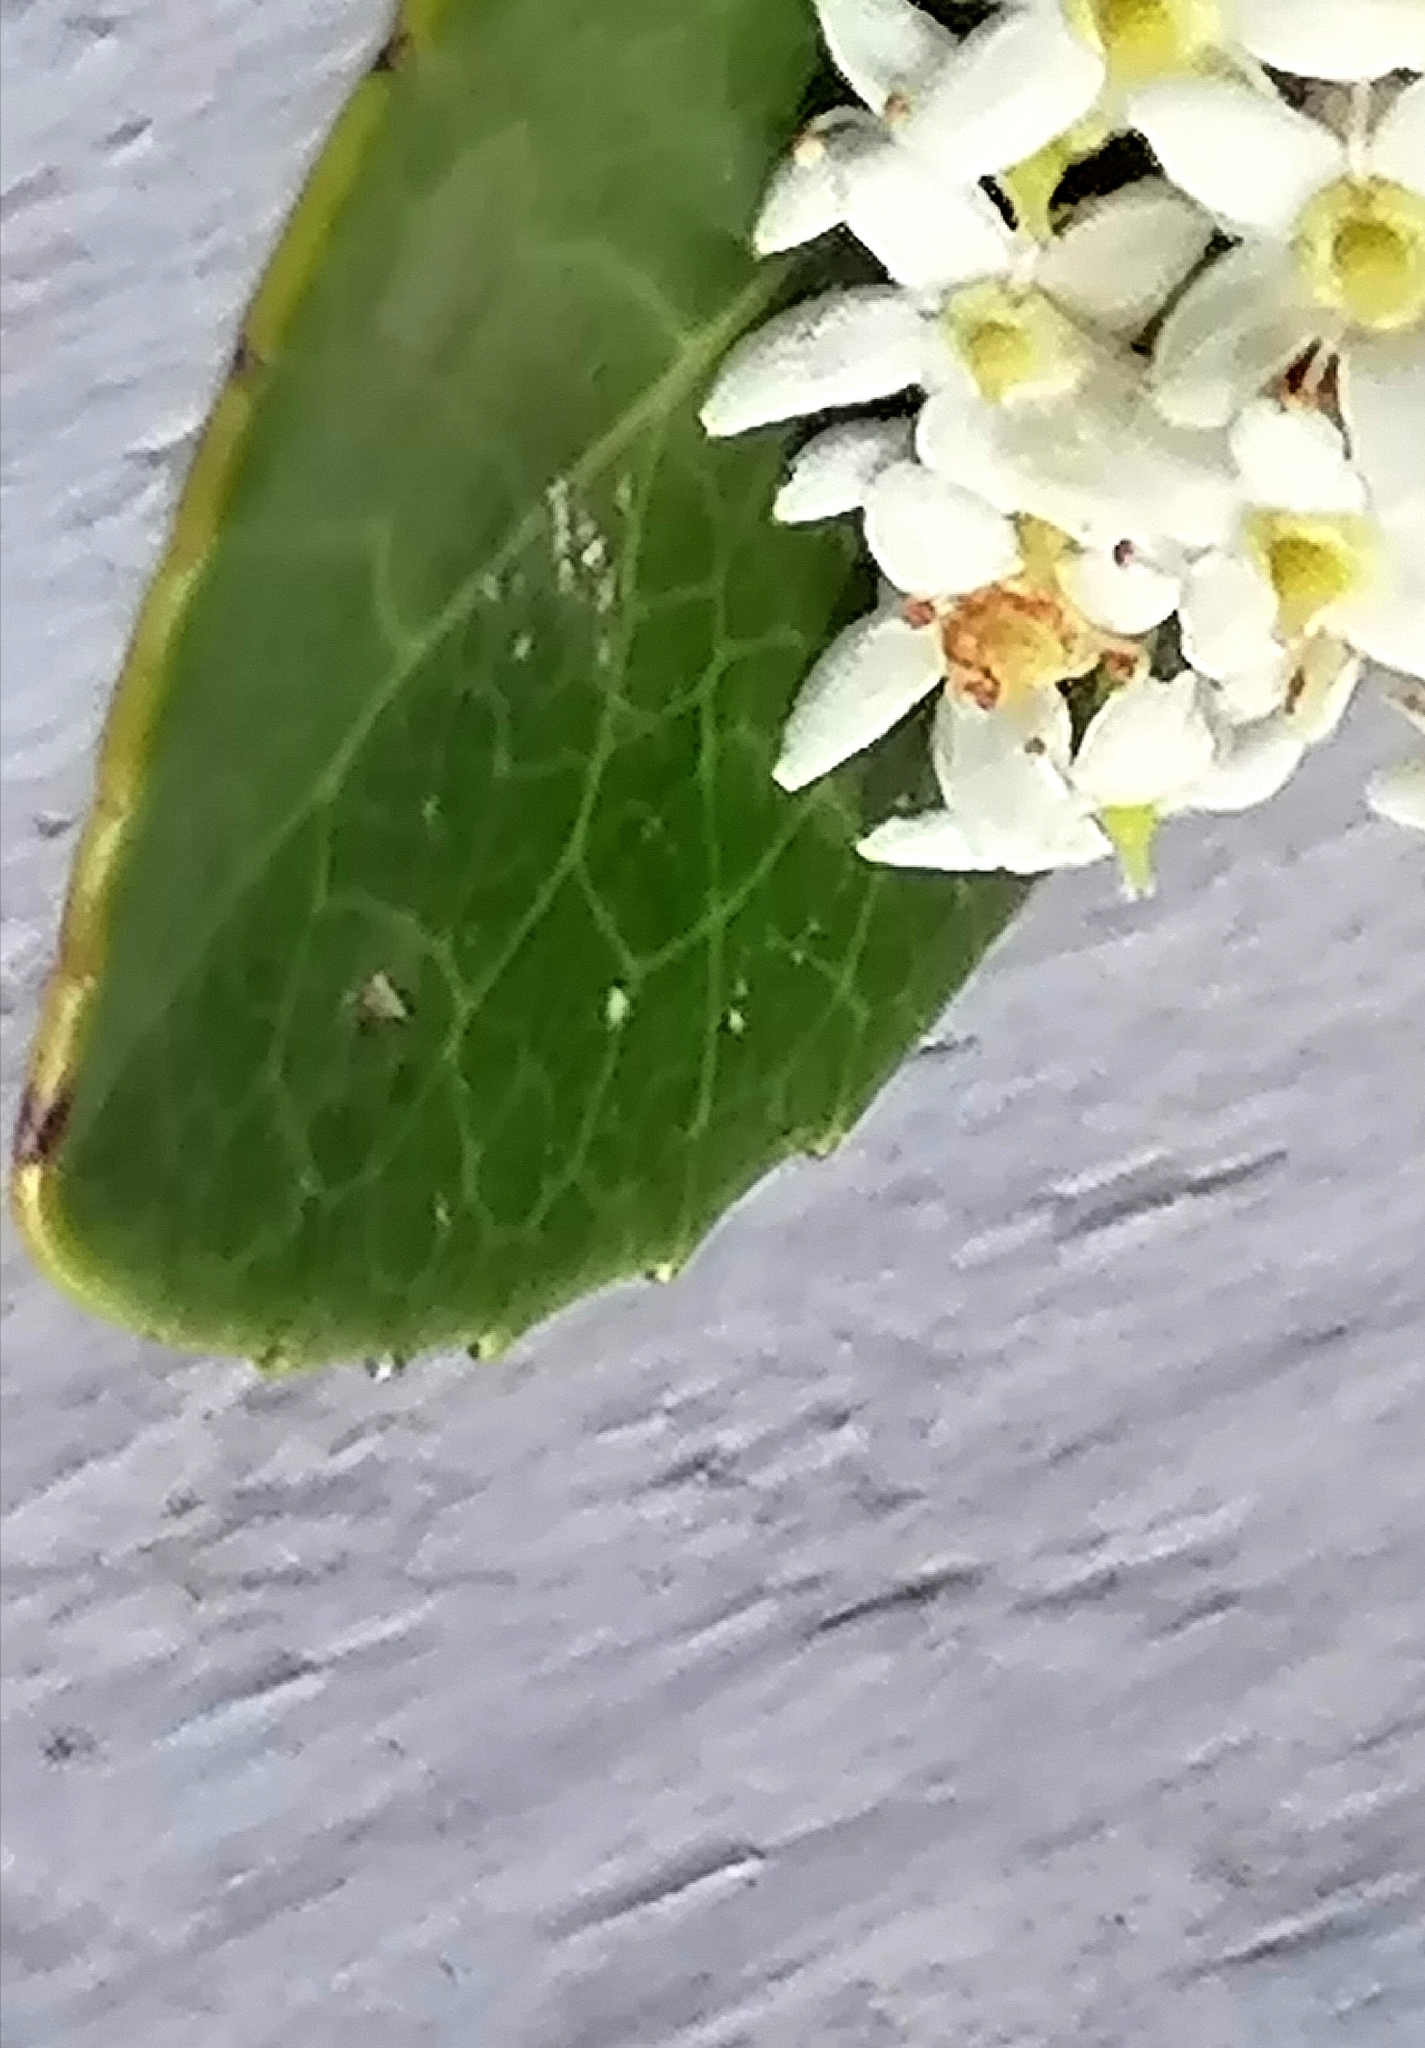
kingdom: Plantae
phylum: Tracheophyta
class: Magnoliopsida
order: Celastrales
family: Celastraceae
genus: Cassine
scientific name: Cassine peragua
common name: Cape saffron
